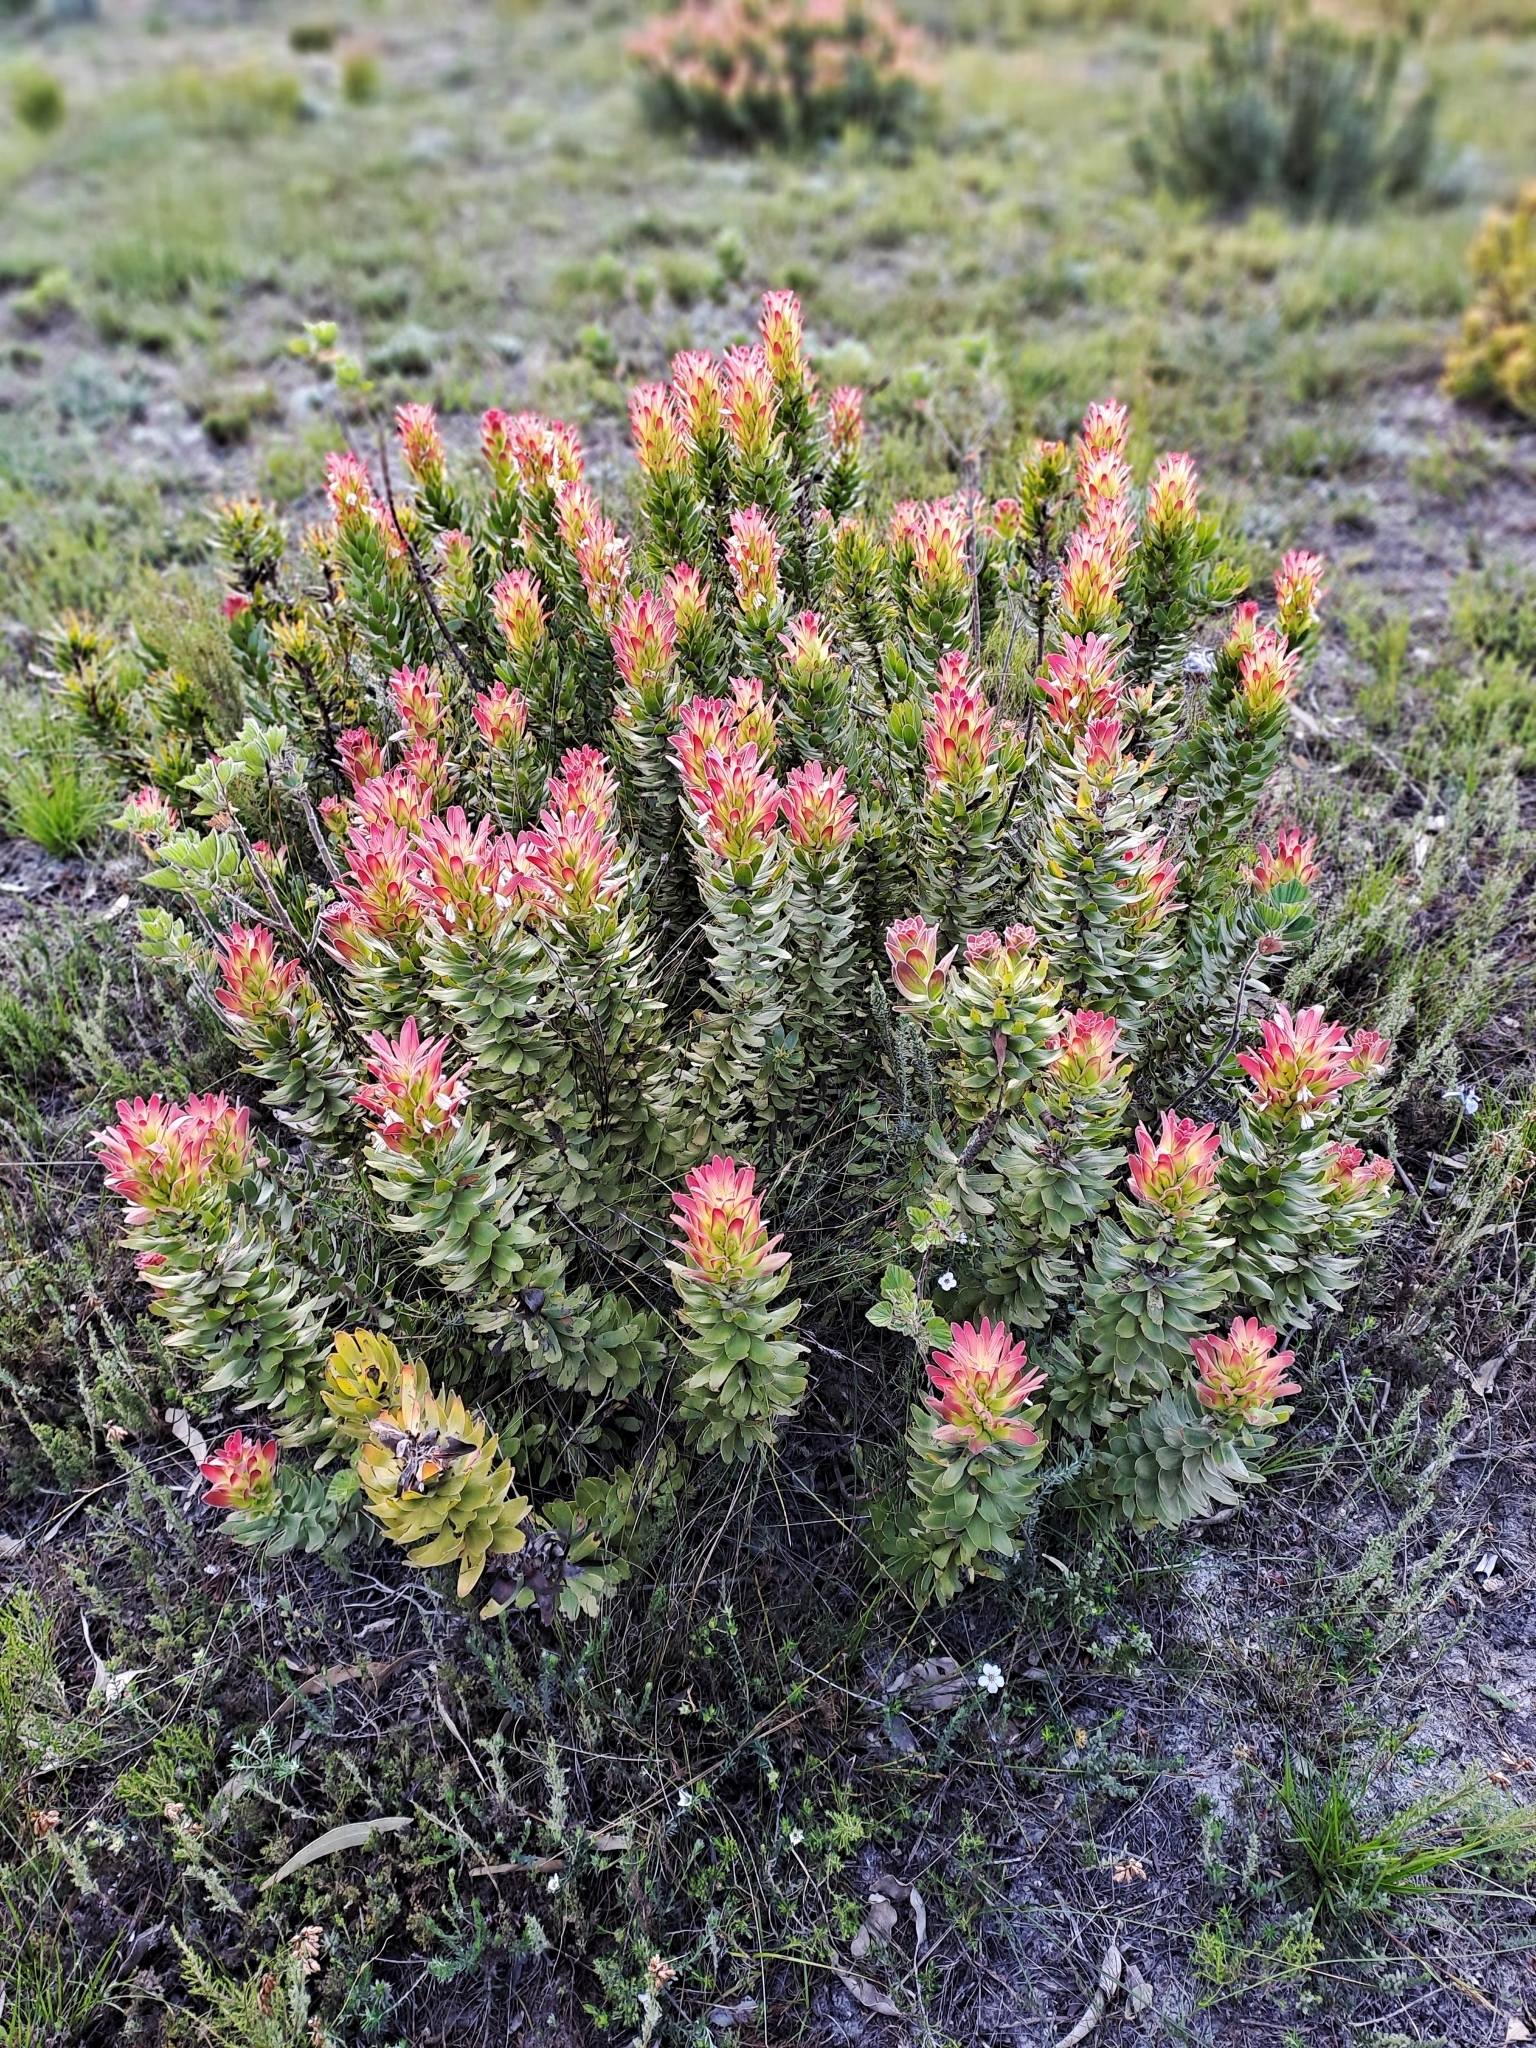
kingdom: Plantae
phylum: Tracheophyta
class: Magnoliopsida
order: Proteales
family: Proteaceae
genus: Mimetes
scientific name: Mimetes cucullatus
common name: Common pagoda
